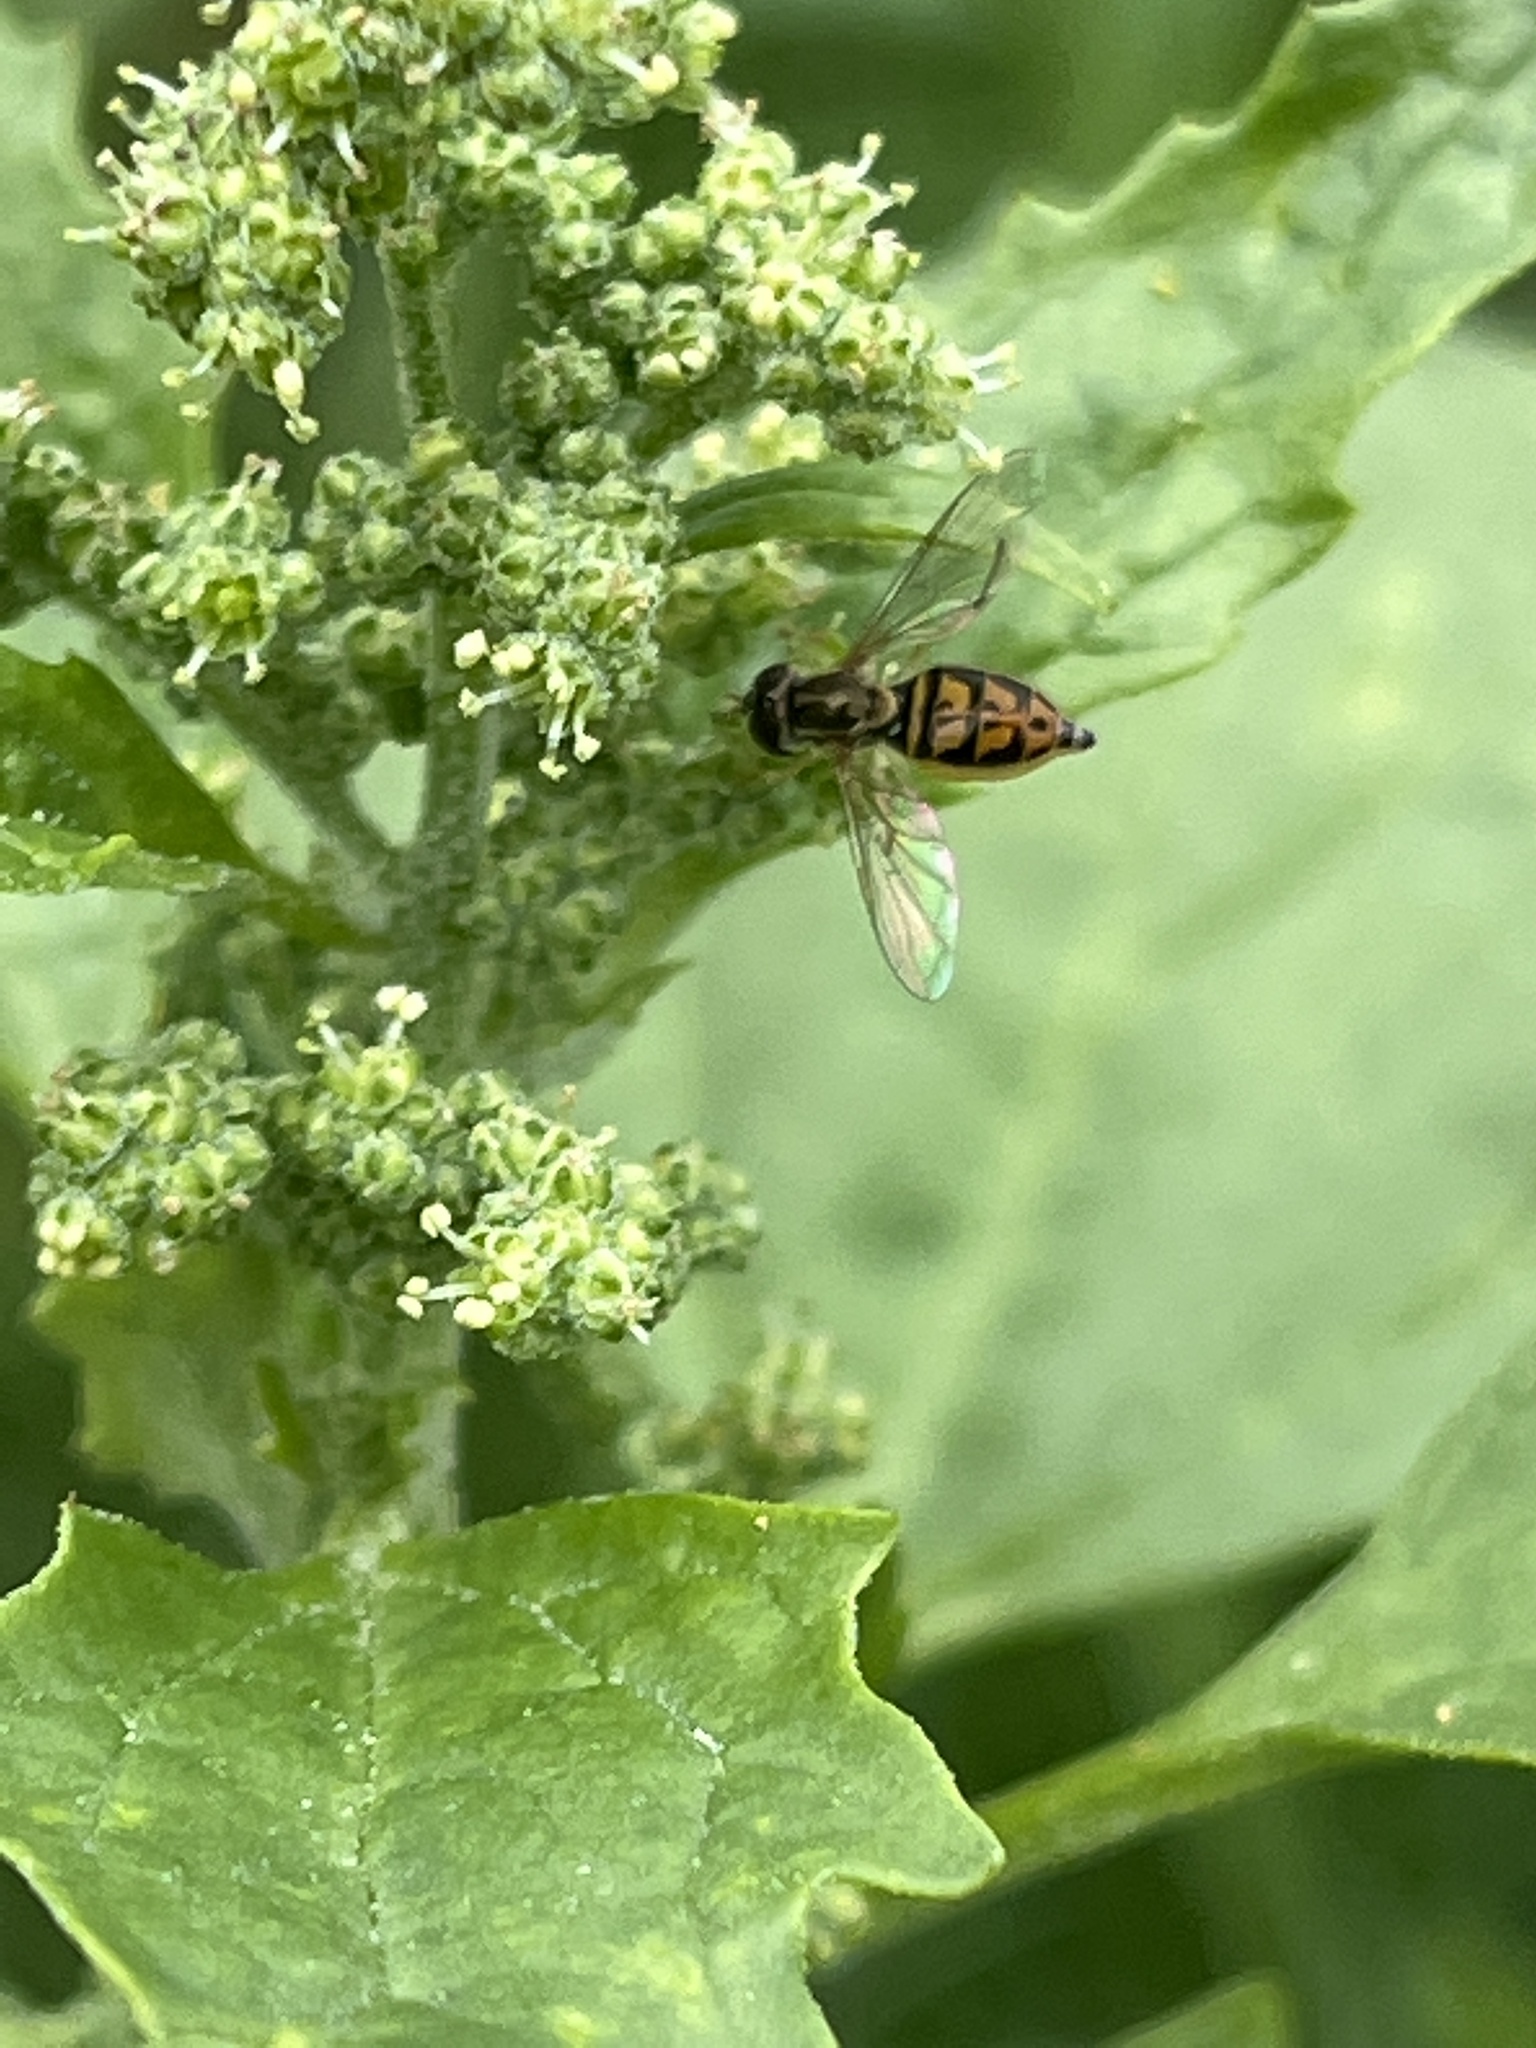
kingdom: Animalia
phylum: Arthropoda
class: Insecta
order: Diptera
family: Syrphidae
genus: Toxomerus
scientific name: Toxomerus marginatus
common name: Syrphid fly
